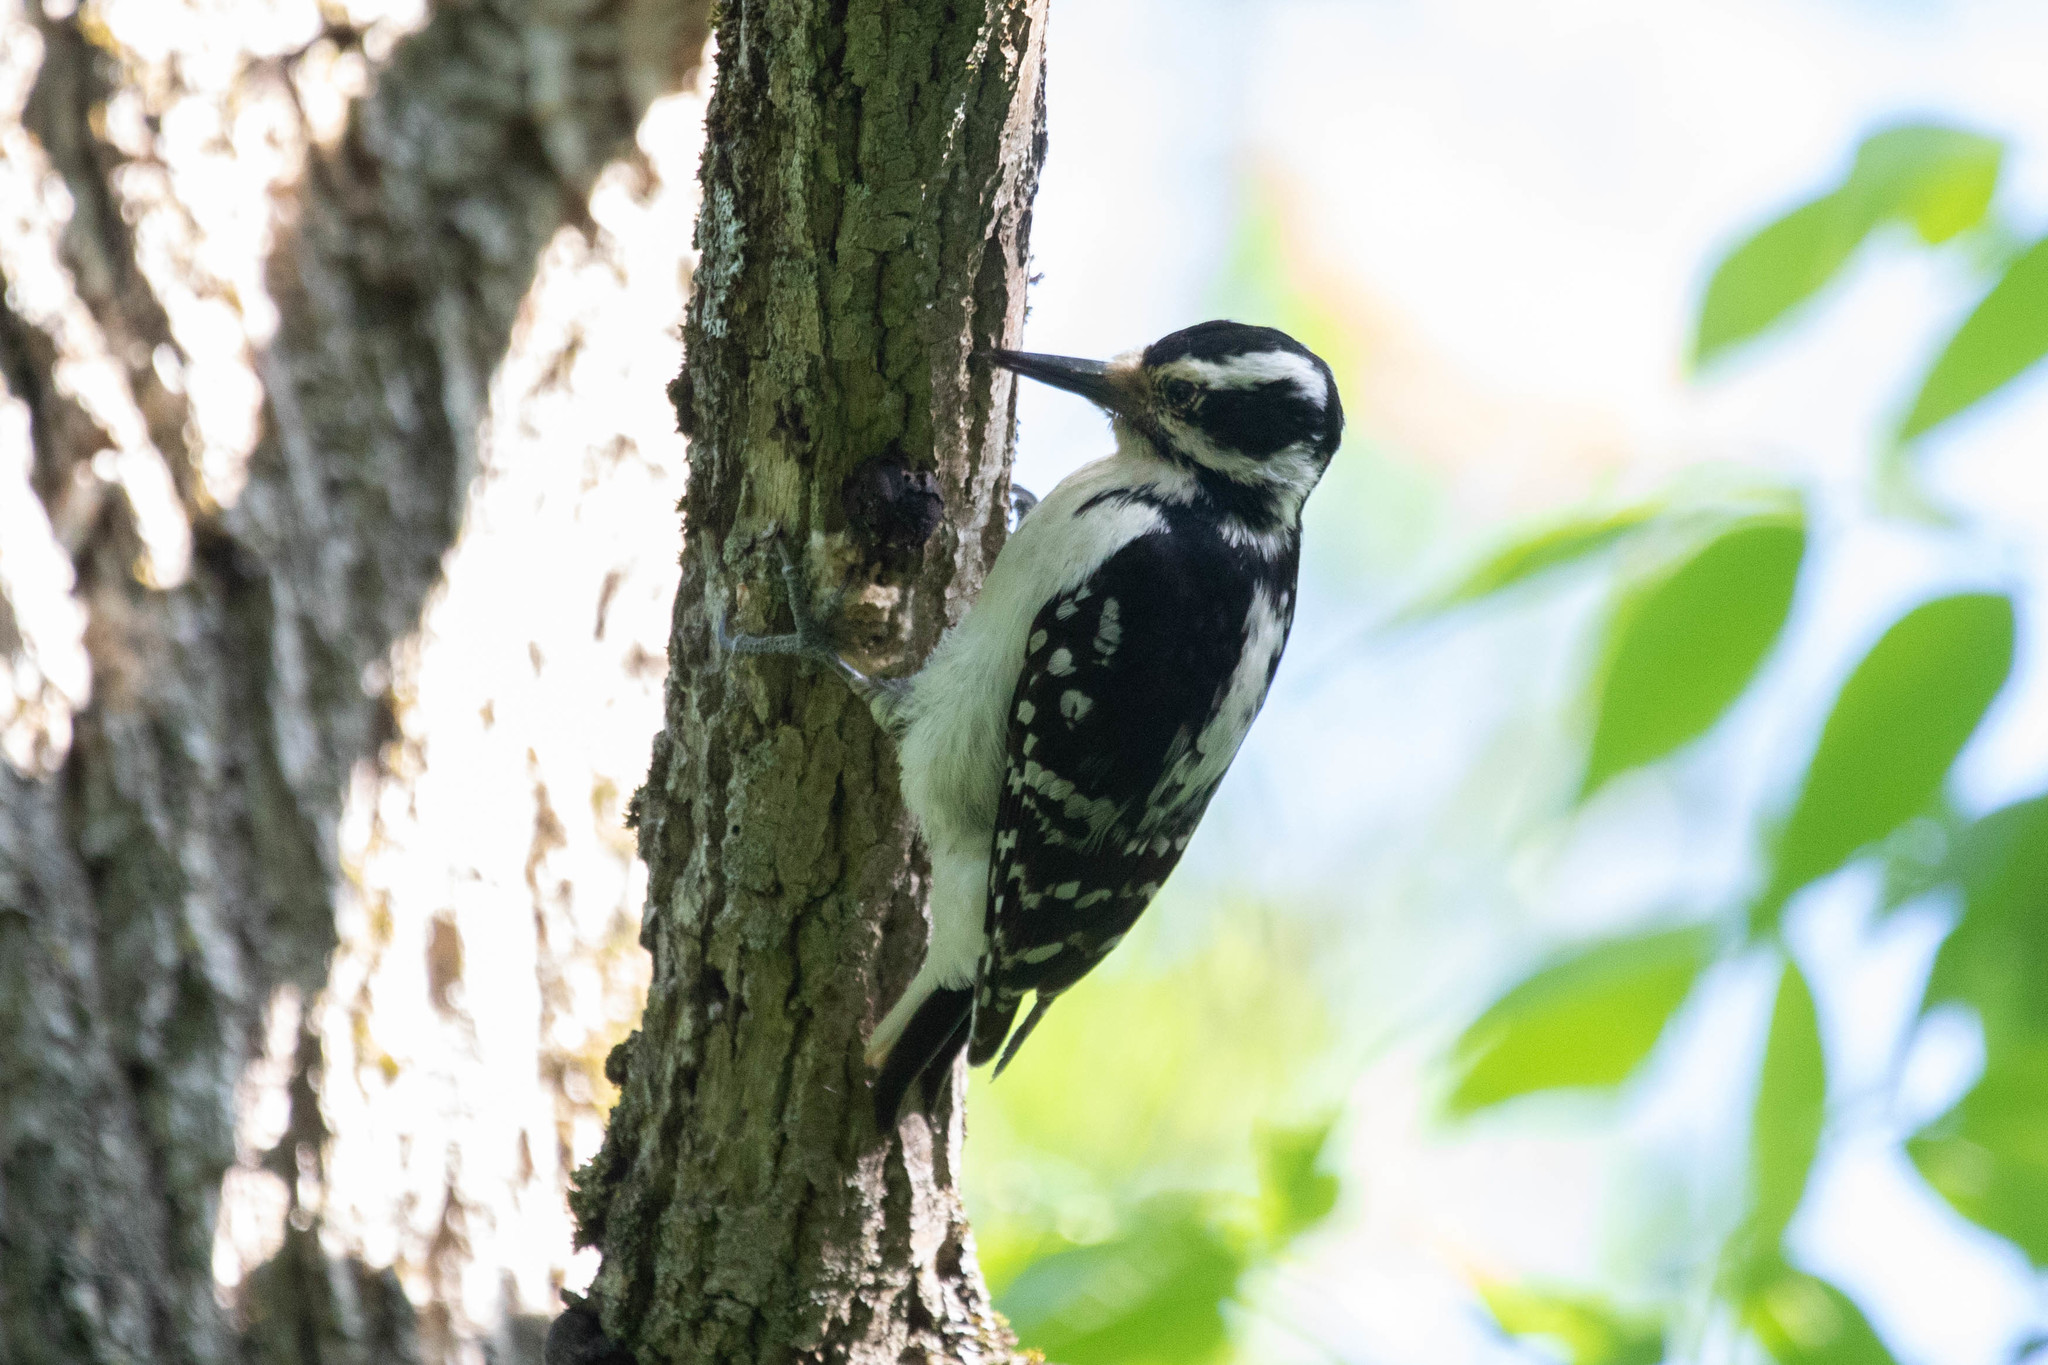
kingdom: Animalia
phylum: Chordata
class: Aves
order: Piciformes
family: Picidae
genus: Leuconotopicus
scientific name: Leuconotopicus villosus
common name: Hairy woodpecker
